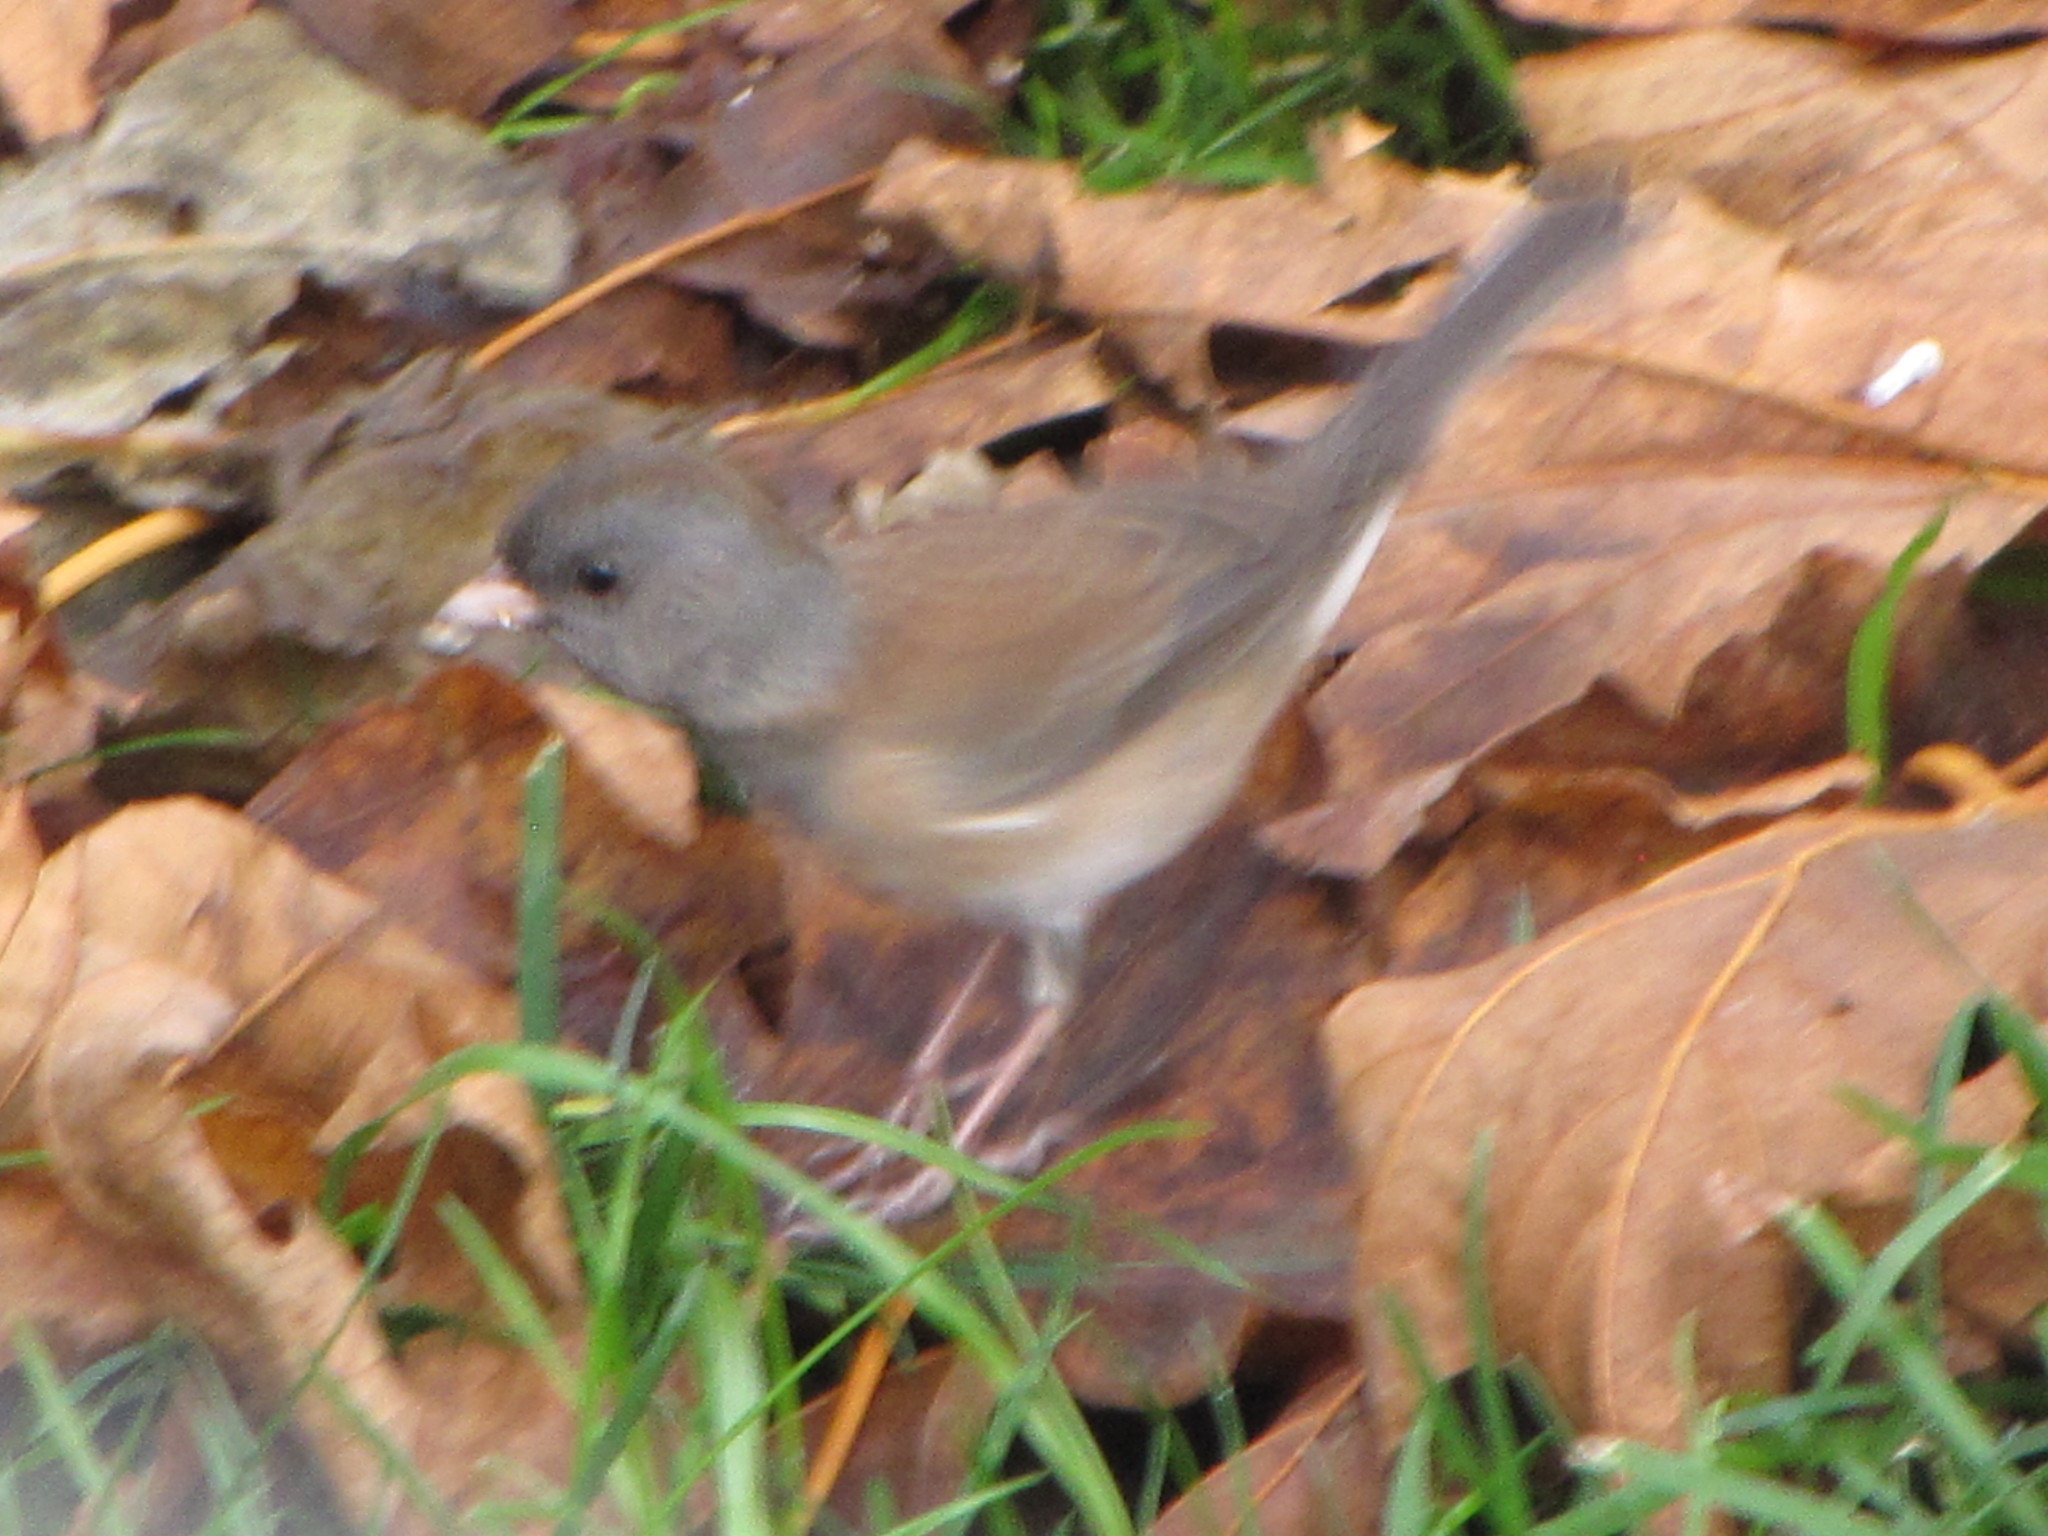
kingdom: Animalia
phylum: Chordata
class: Aves
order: Passeriformes
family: Passerellidae
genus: Junco
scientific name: Junco hyemalis
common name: Dark-eyed junco
